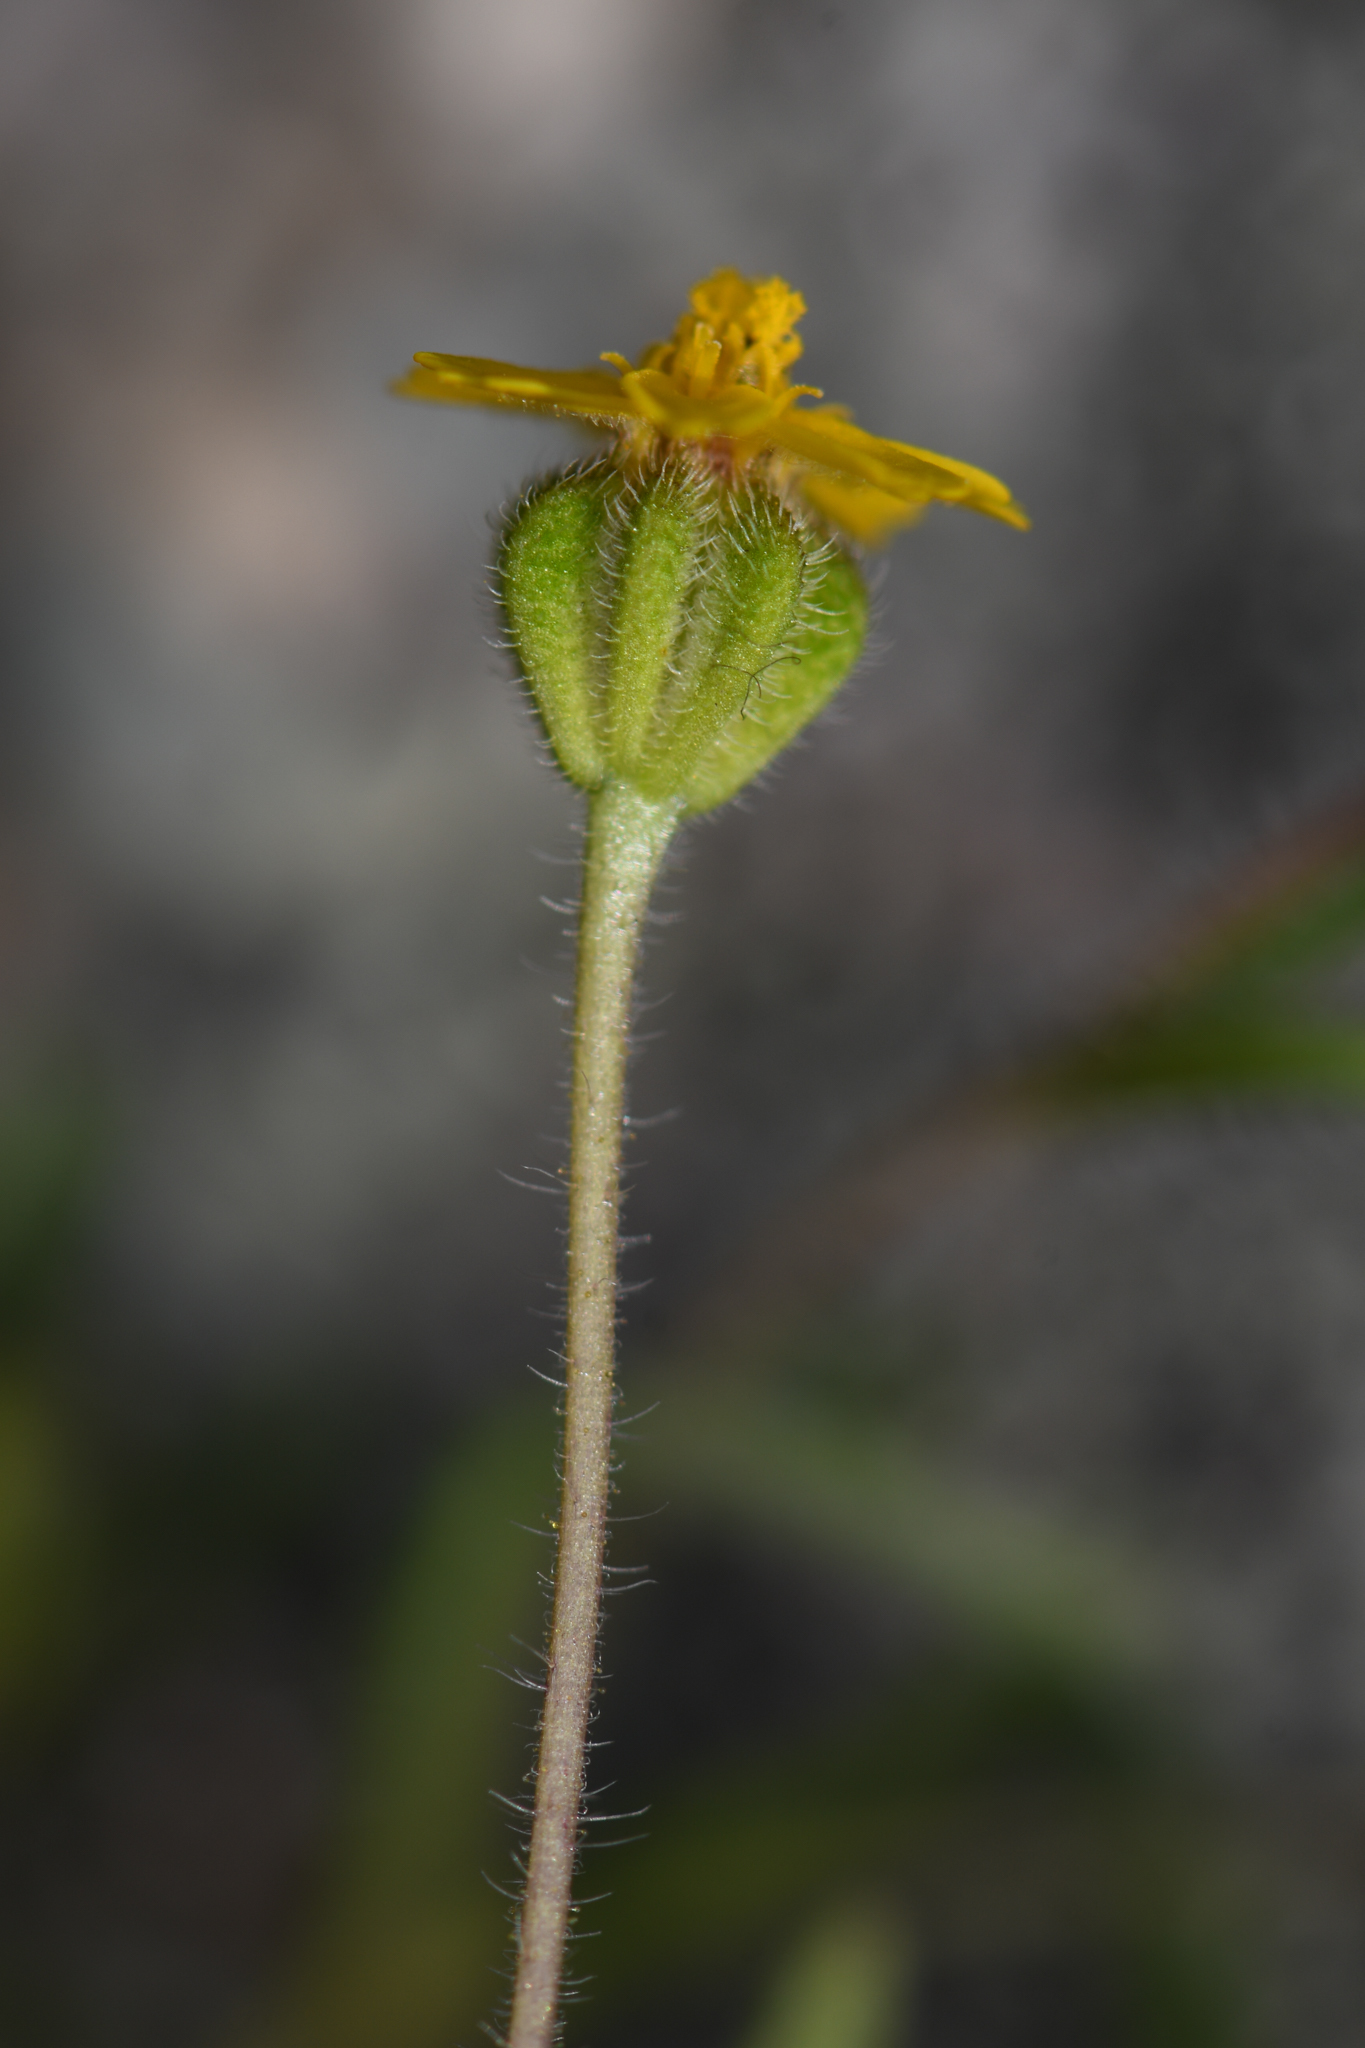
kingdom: Plantae
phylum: Tracheophyta
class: Magnoliopsida
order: Asterales
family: Asteraceae
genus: Jensia
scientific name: Jensia yosemitana
